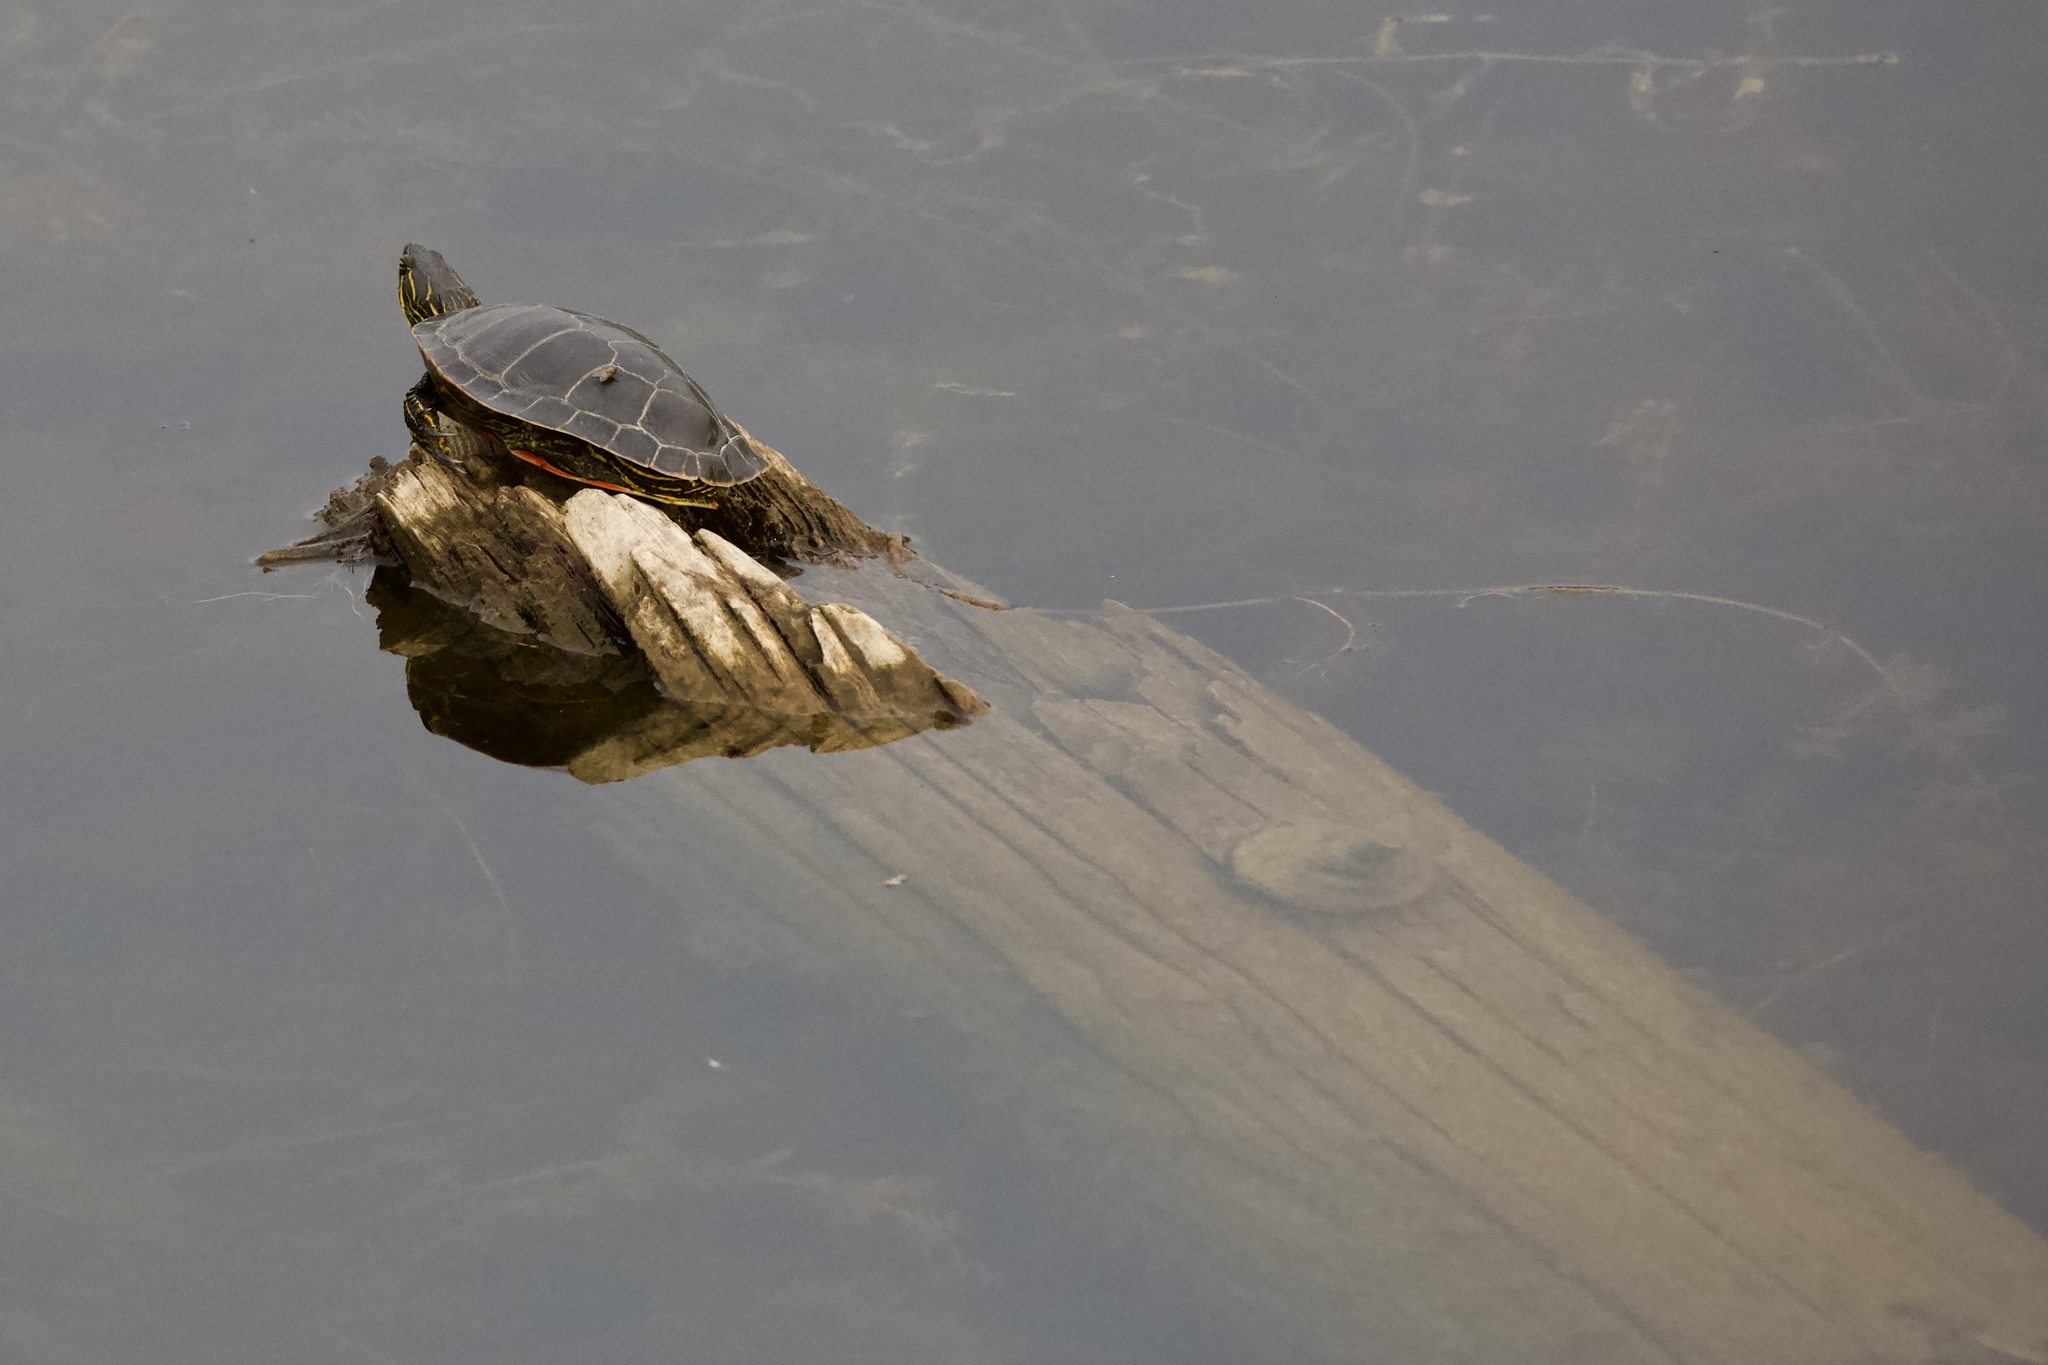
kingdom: Animalia
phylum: Chordata
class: Testudines
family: Emydidae
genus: Chrysemys
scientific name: Chrysemys picta
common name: Painted turtle
